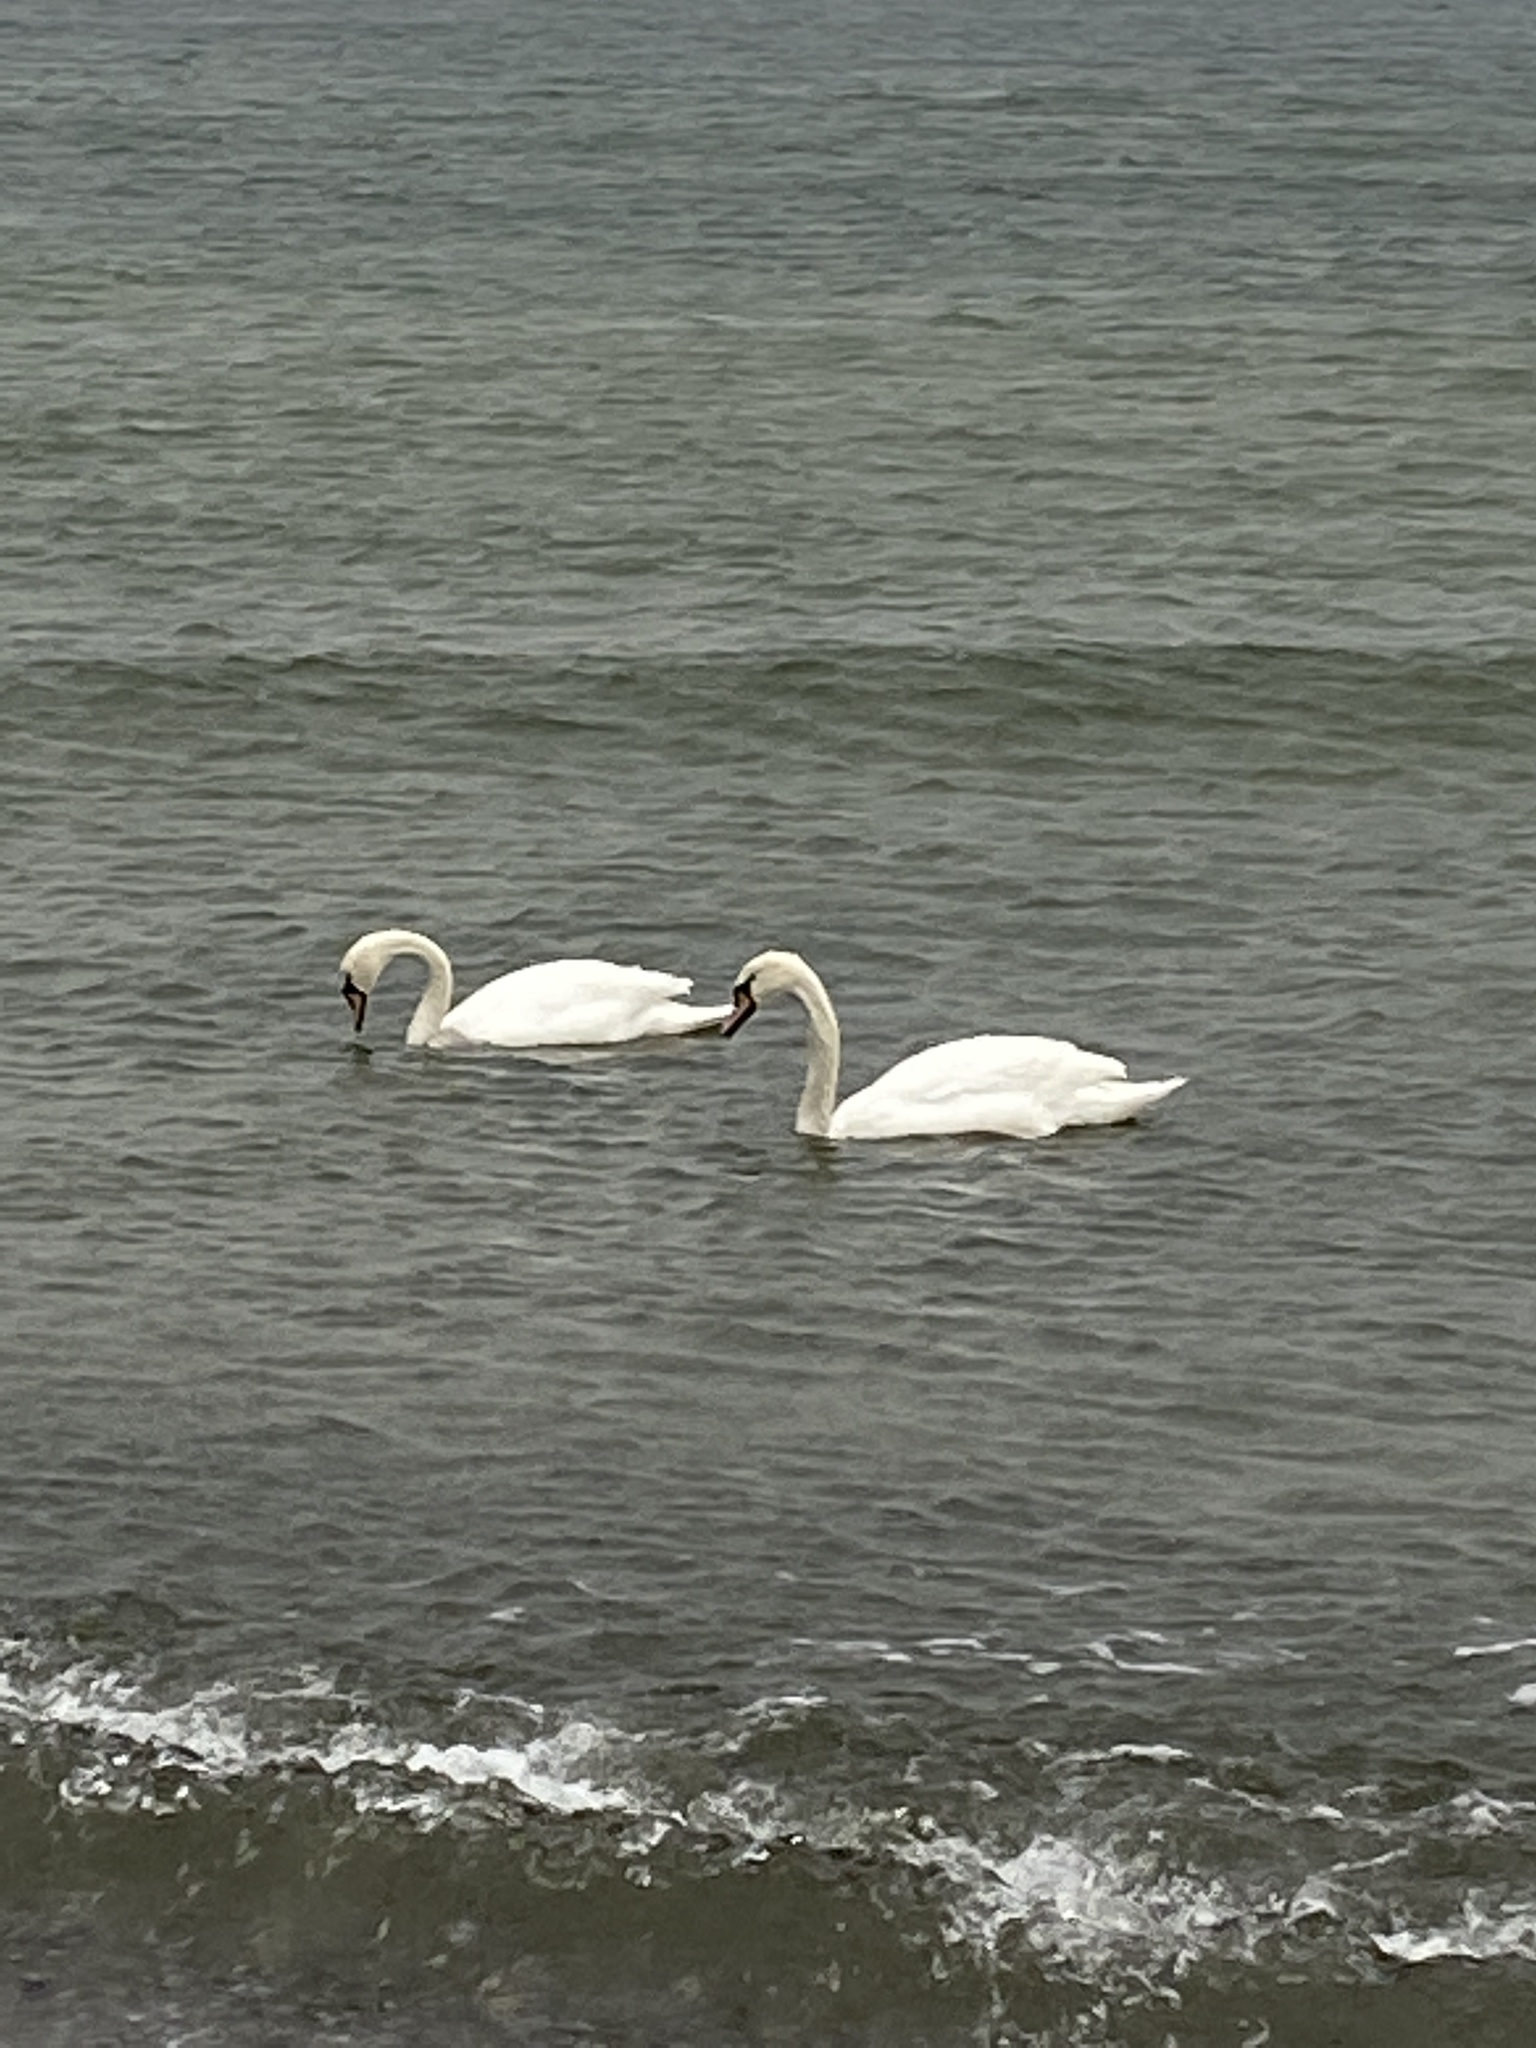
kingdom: Animalia
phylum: Chordata
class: Aves
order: Anseriformes
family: Anatidae
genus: Cygnus
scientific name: Cygnus olor
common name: Mute swan
